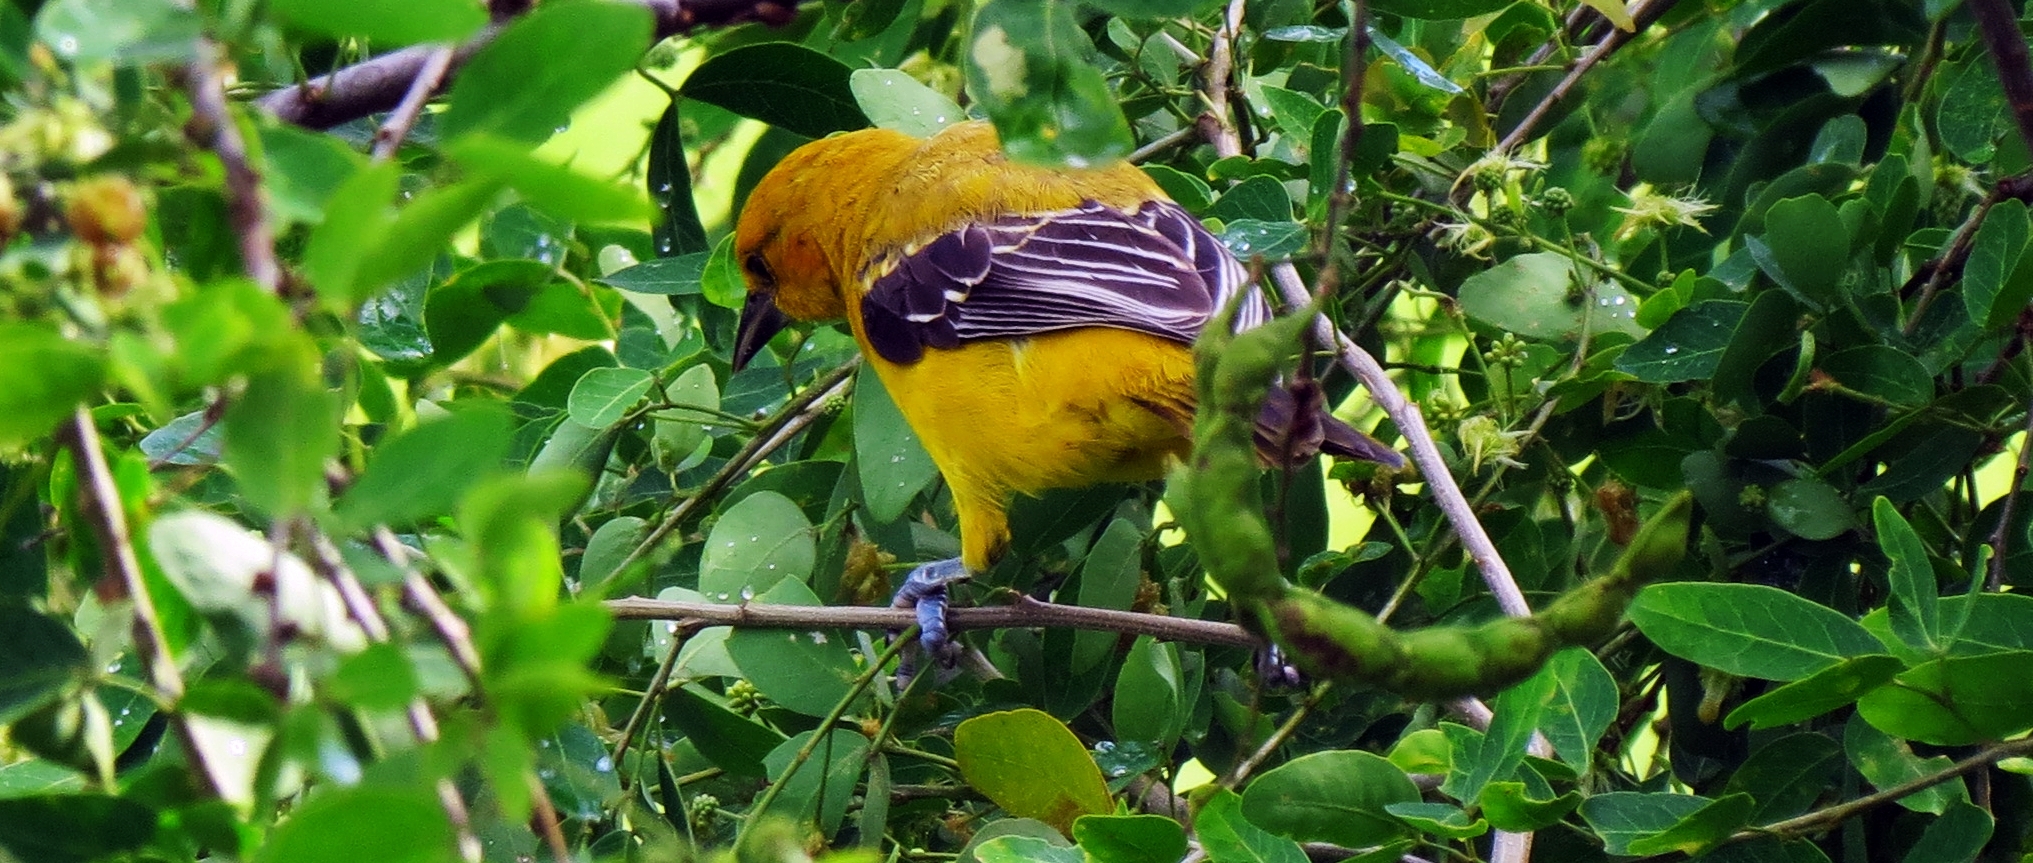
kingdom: Animalia
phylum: Chordata
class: Aves
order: Passeriformes
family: Icteridae
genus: Icterus
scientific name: Icterus nigrogularis
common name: Yellow oriole
